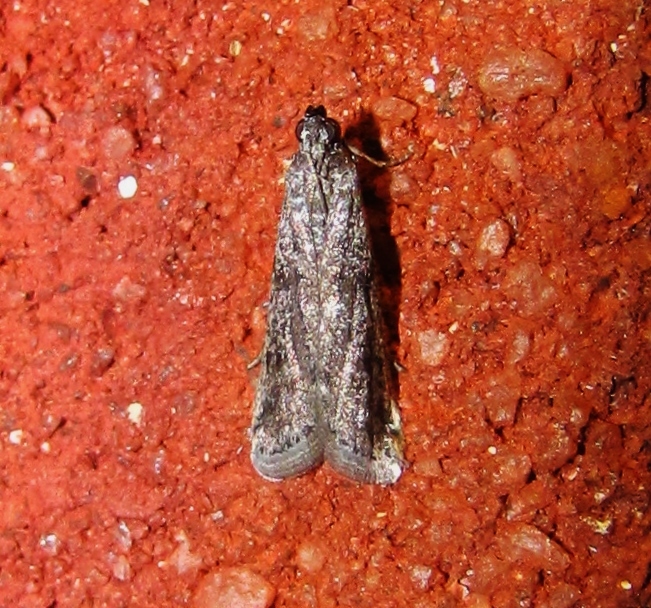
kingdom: Animalia
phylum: Arthropoda
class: Insecta
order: Lepidoptera
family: Pyralidae
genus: Phycitodes
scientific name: Phycitodes mucidellus
